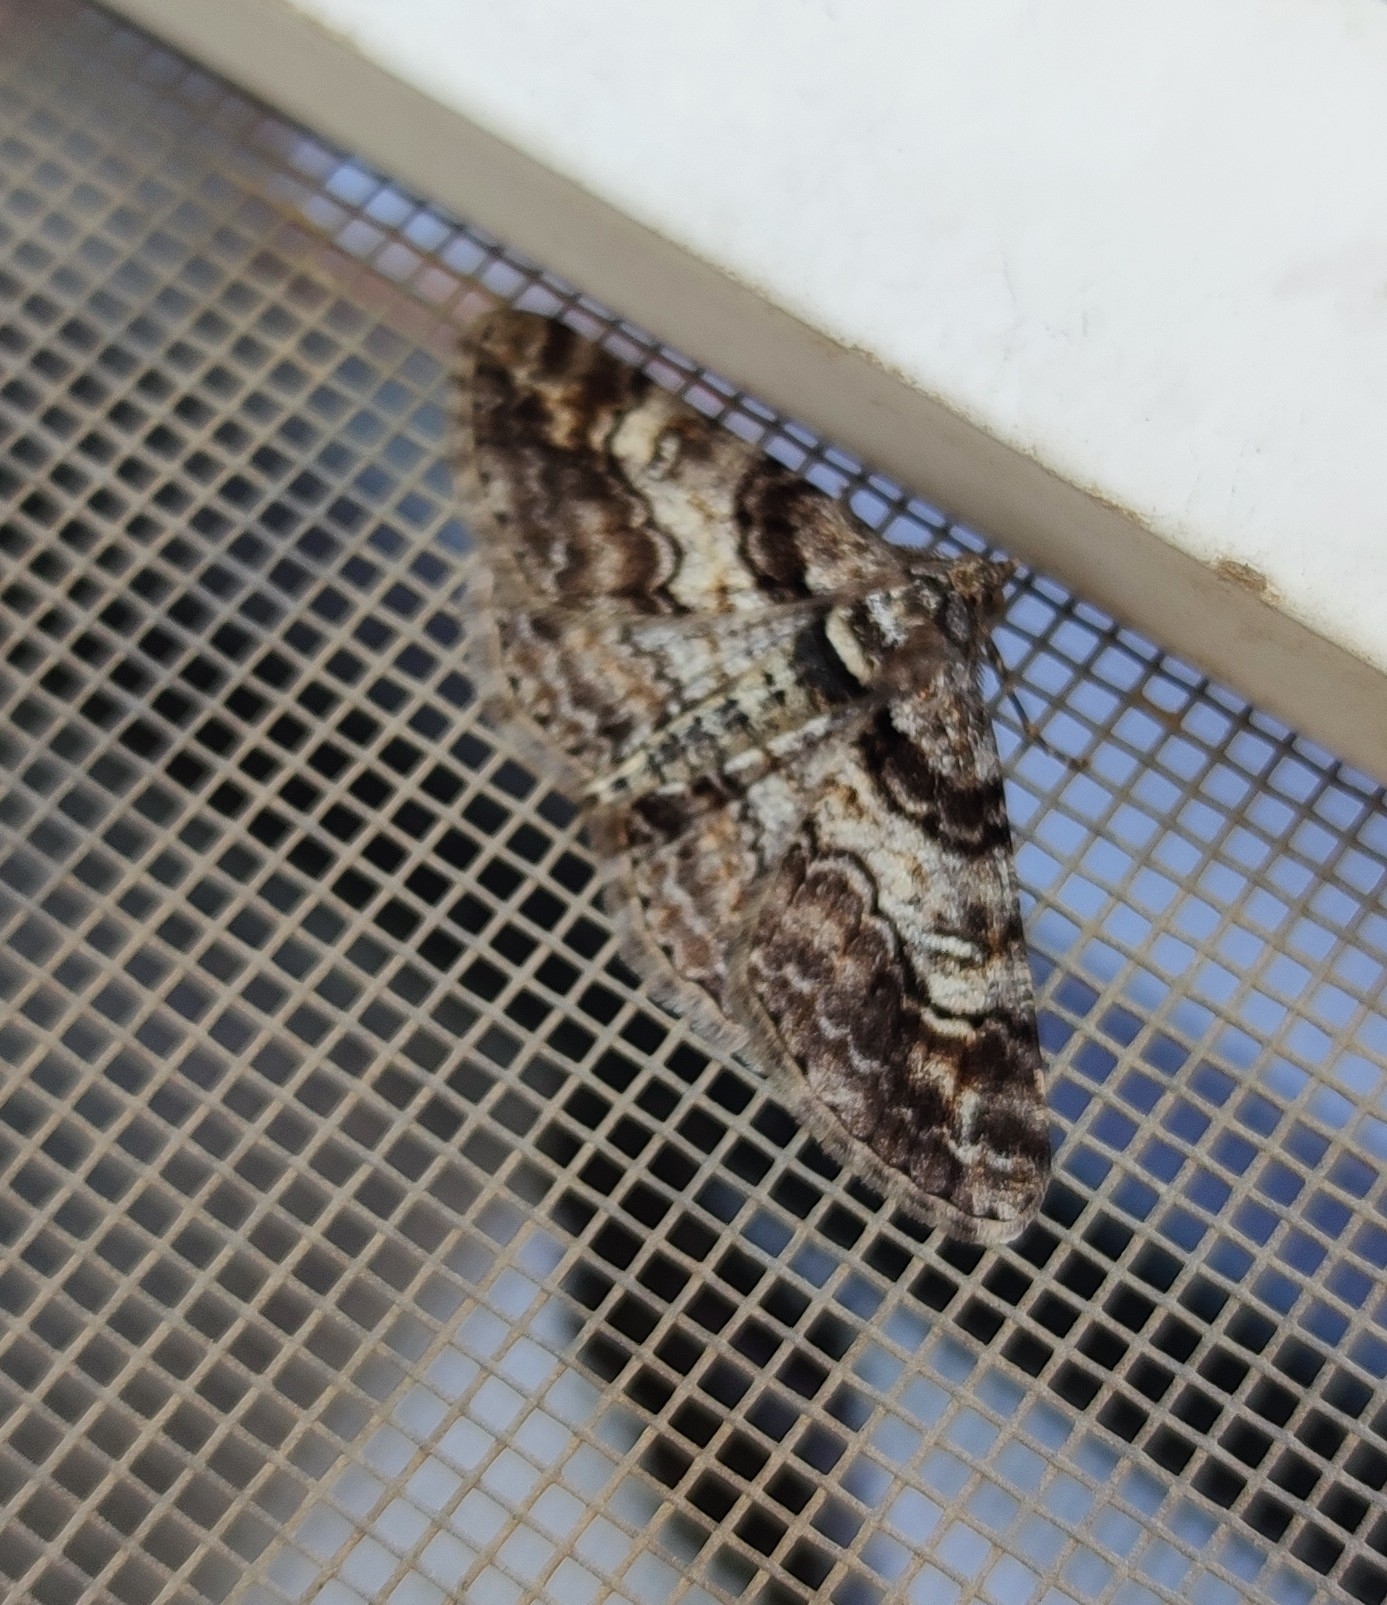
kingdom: Animalia
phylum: Arthropoda
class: Insecta
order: Lepidoptera
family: Geometridae
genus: Cleora
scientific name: Cleora cinctaria
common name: Ringed carpet
